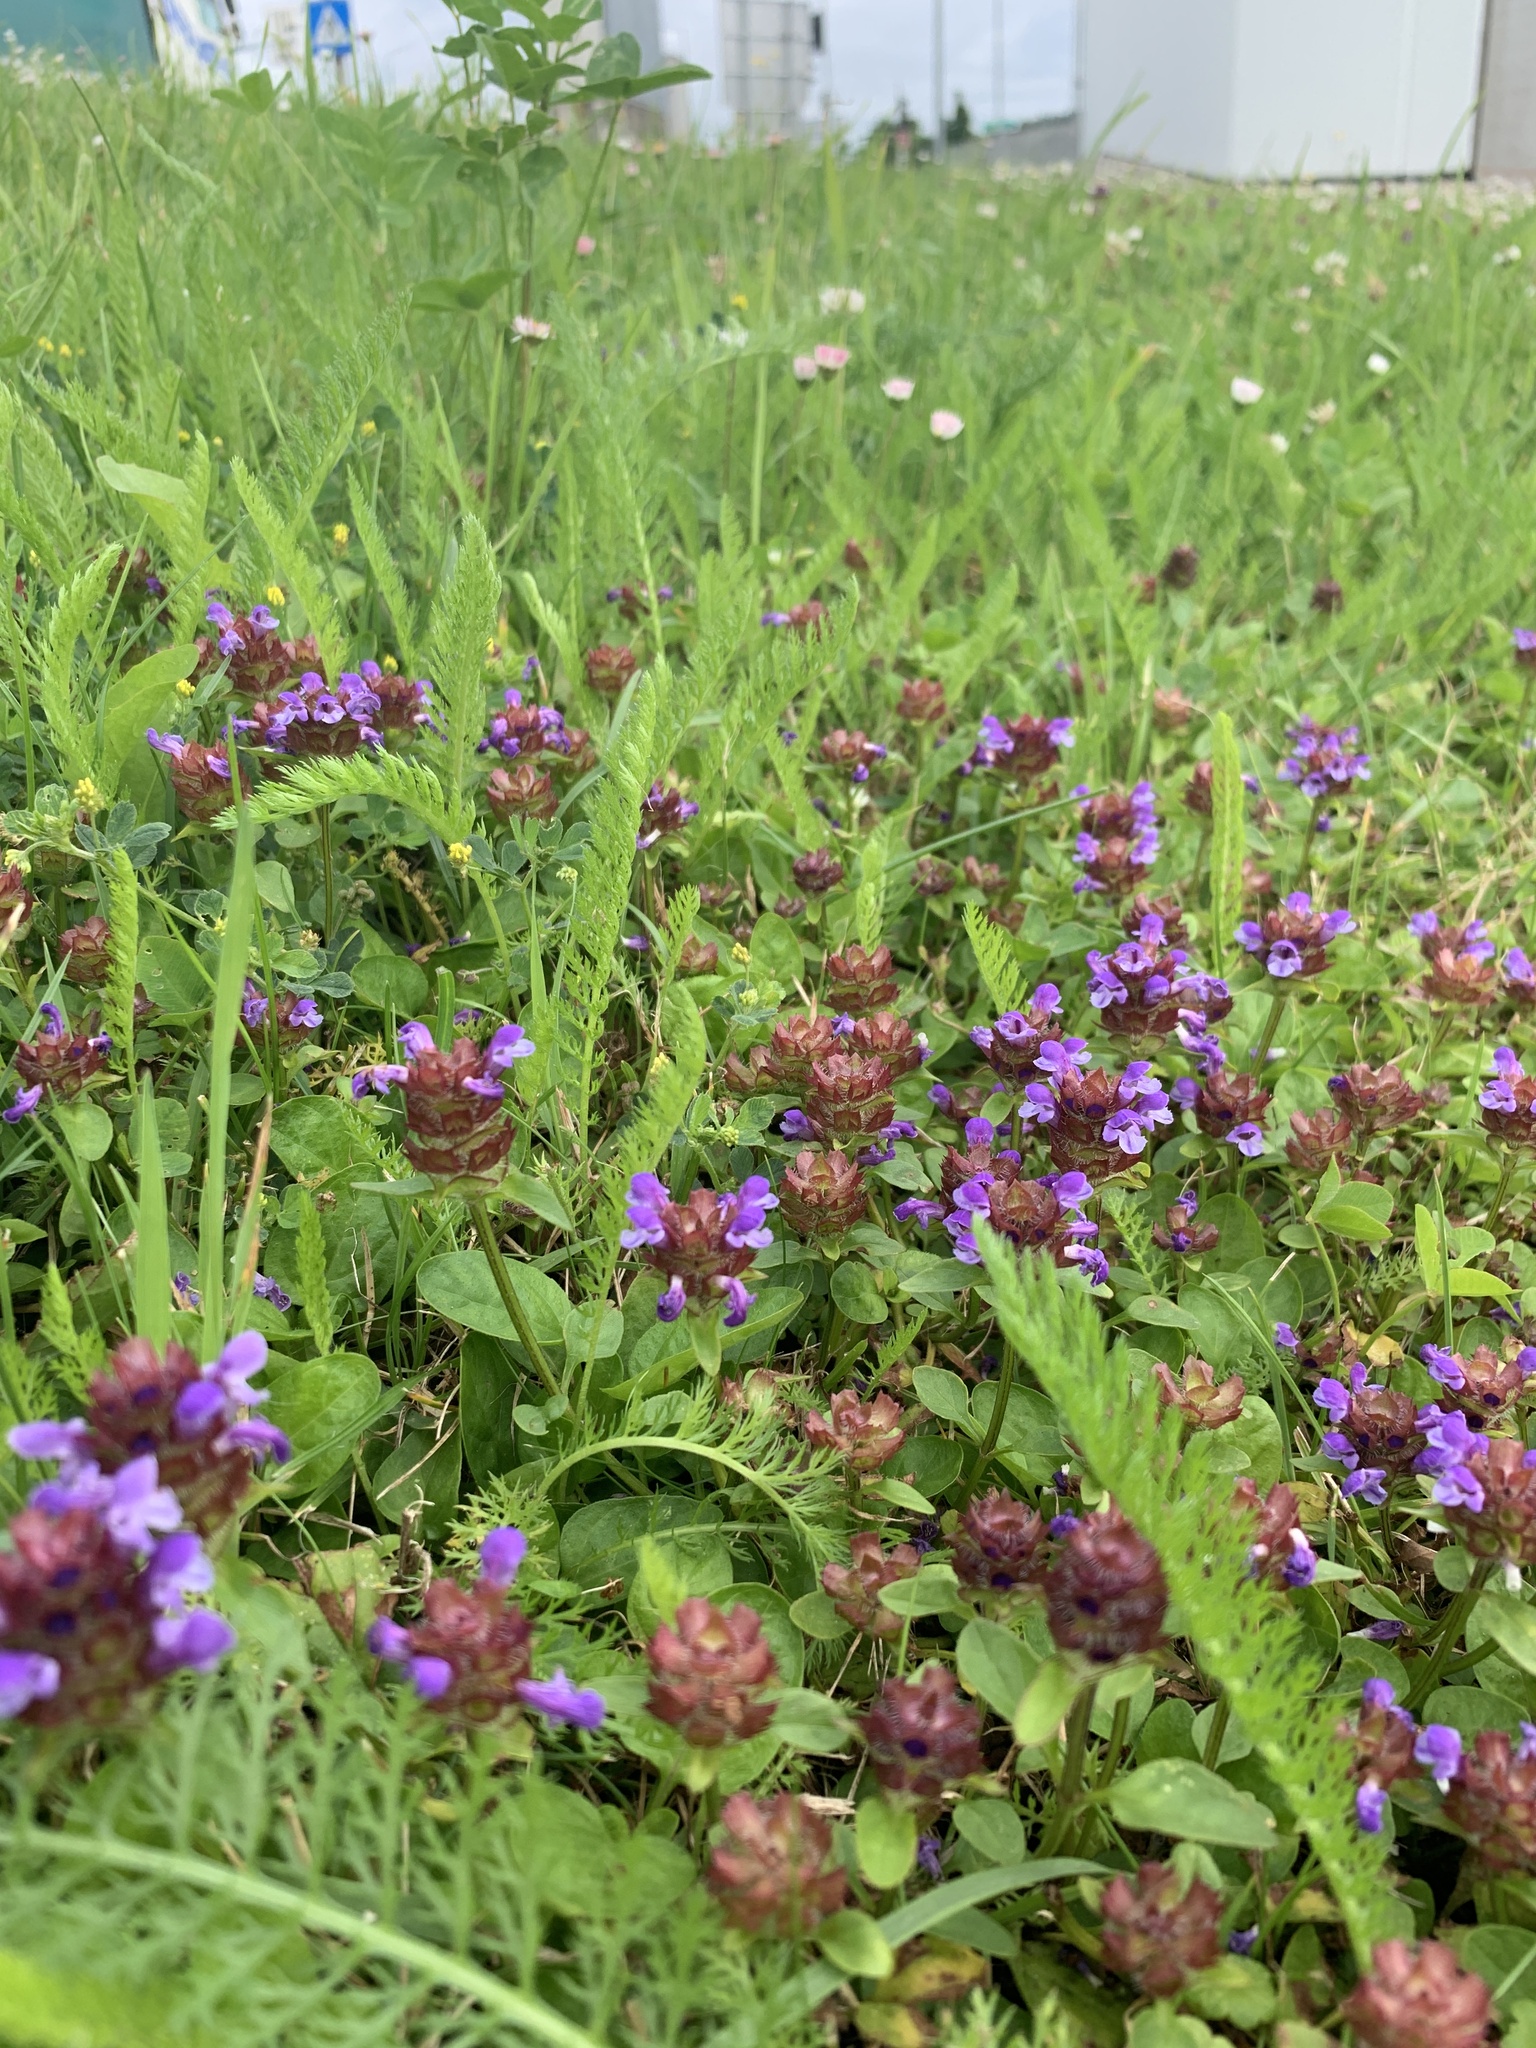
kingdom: Plantae
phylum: Tracheophyta
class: Magnoliopsida
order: Lamiales
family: Lamiaceae
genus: Prunella
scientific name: Prunella vulgaris
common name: Heal-all
